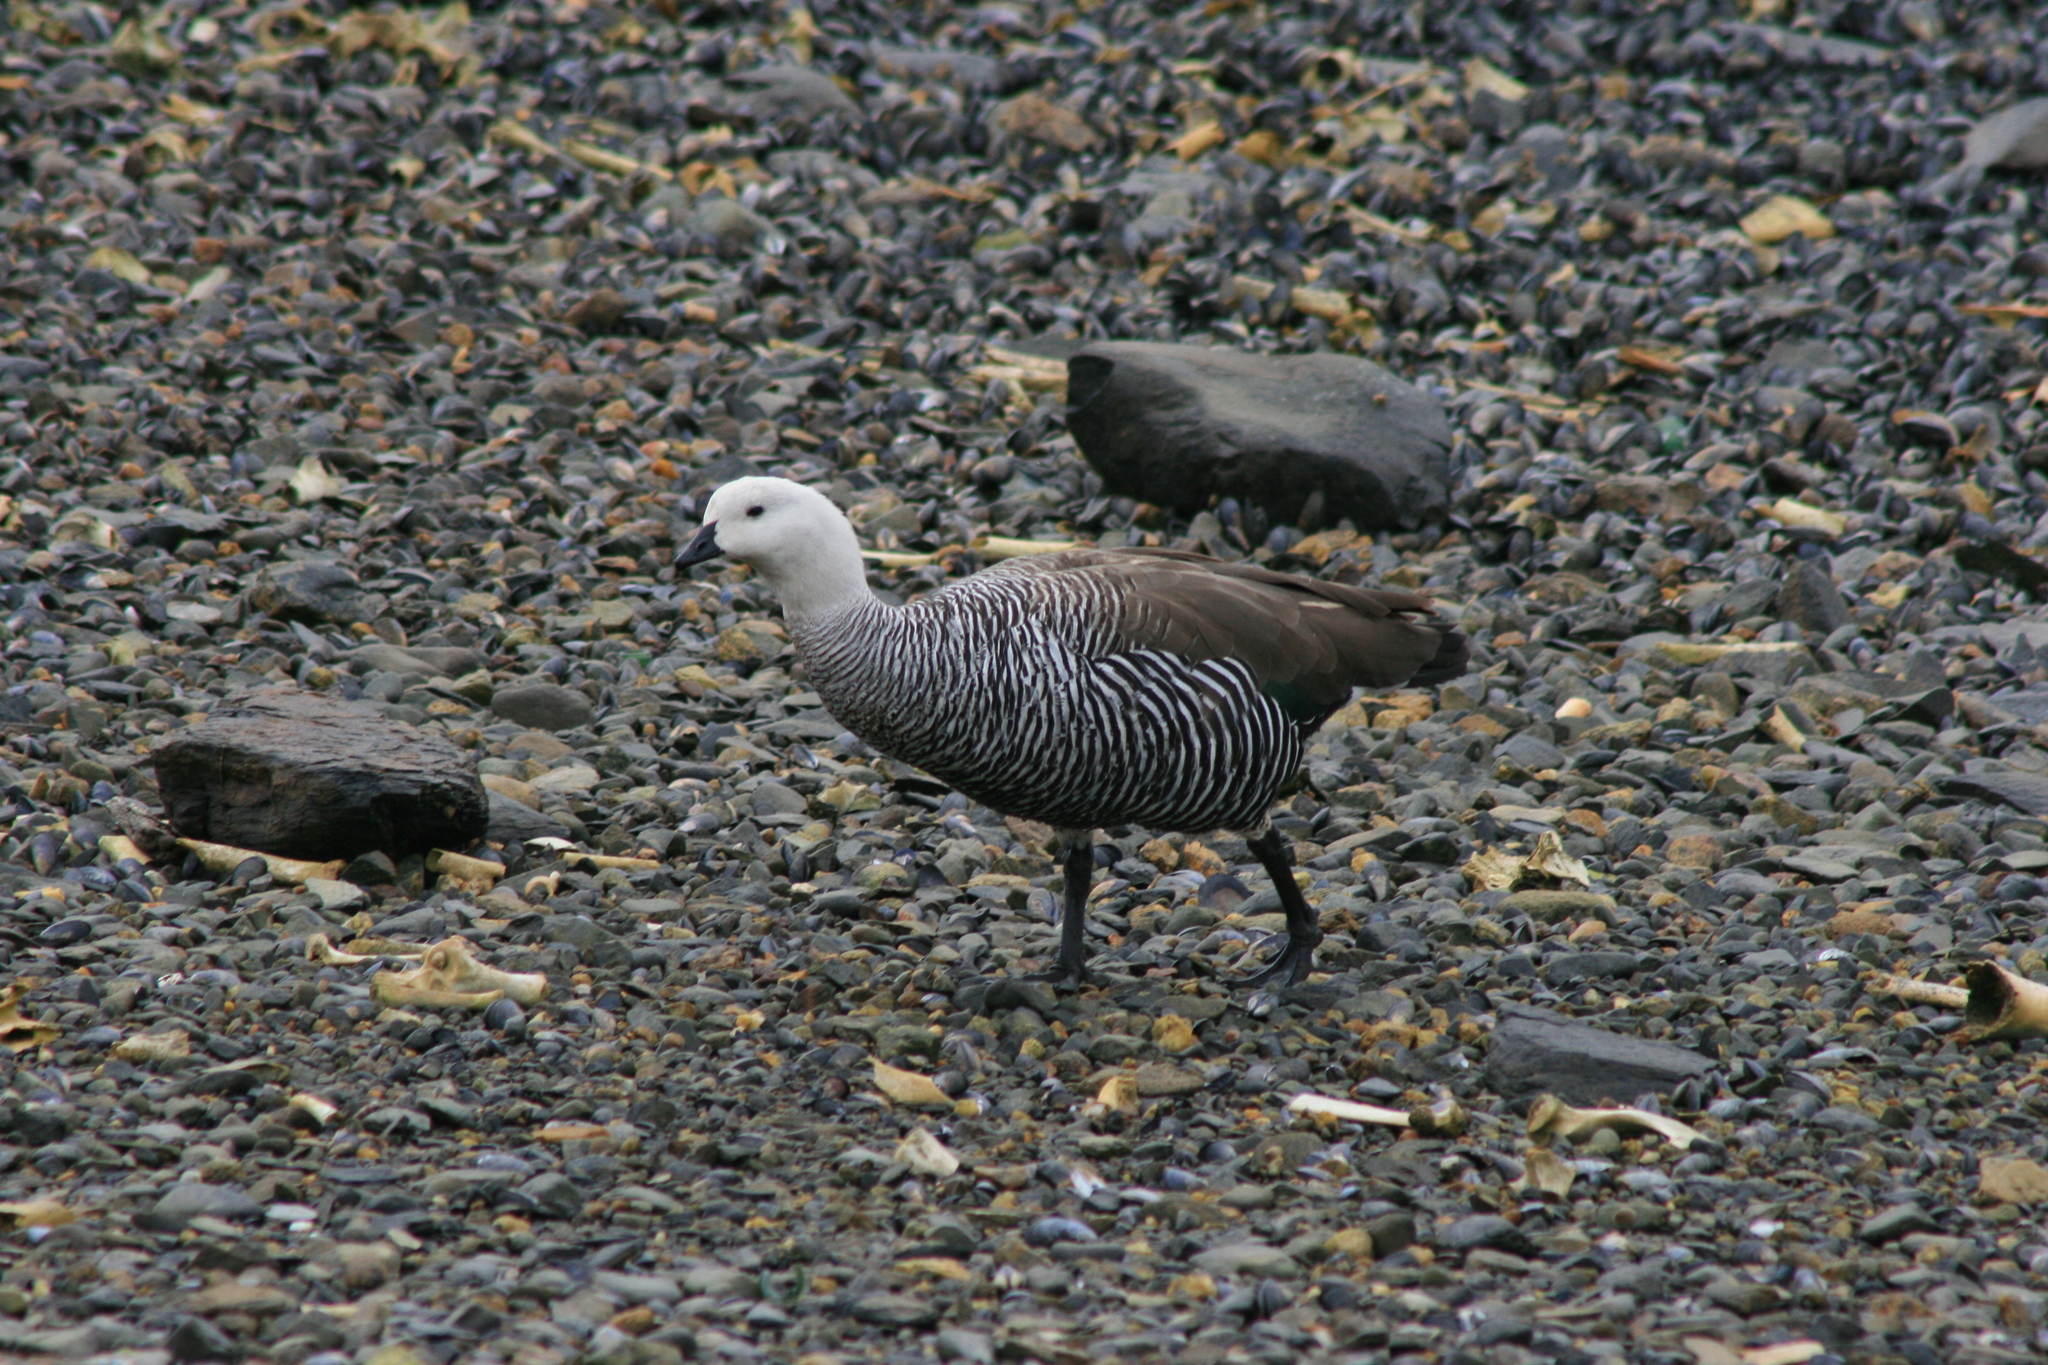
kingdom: Animalia
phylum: Chordata
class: Aves
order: Anseriformes
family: Anatidae
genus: Chloephaga
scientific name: Chloephaga picta
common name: Upland goose
